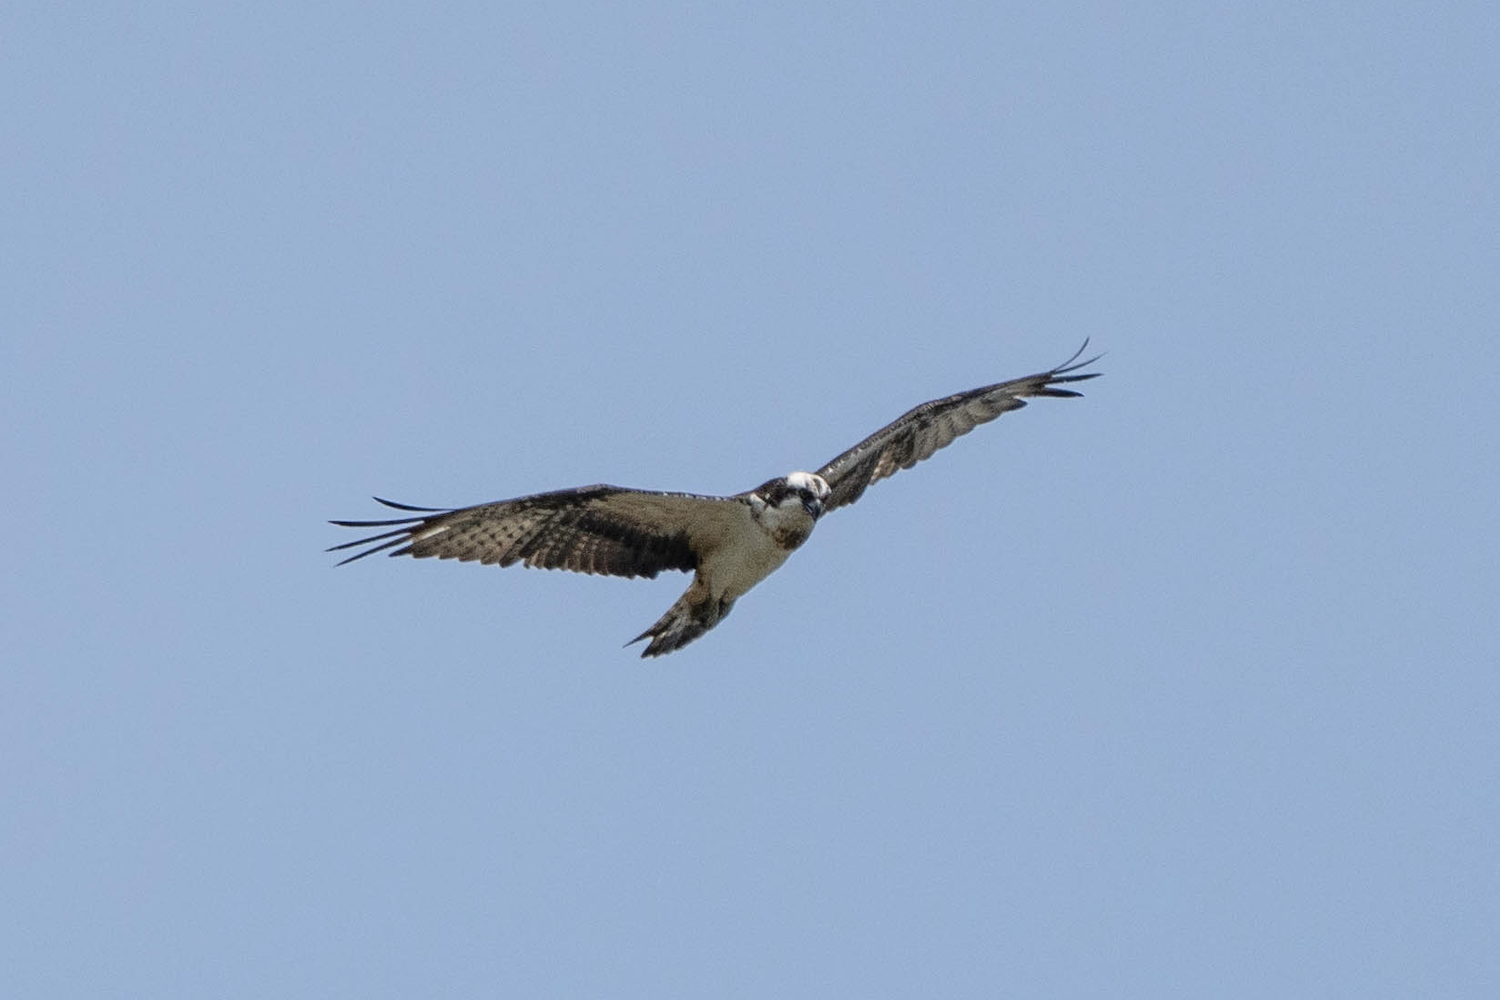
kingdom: Animalia
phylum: Chordata
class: Aves
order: Accipitriformes
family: Pandionidae
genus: Pandion
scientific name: Pandion haliaetus
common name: Osprey
